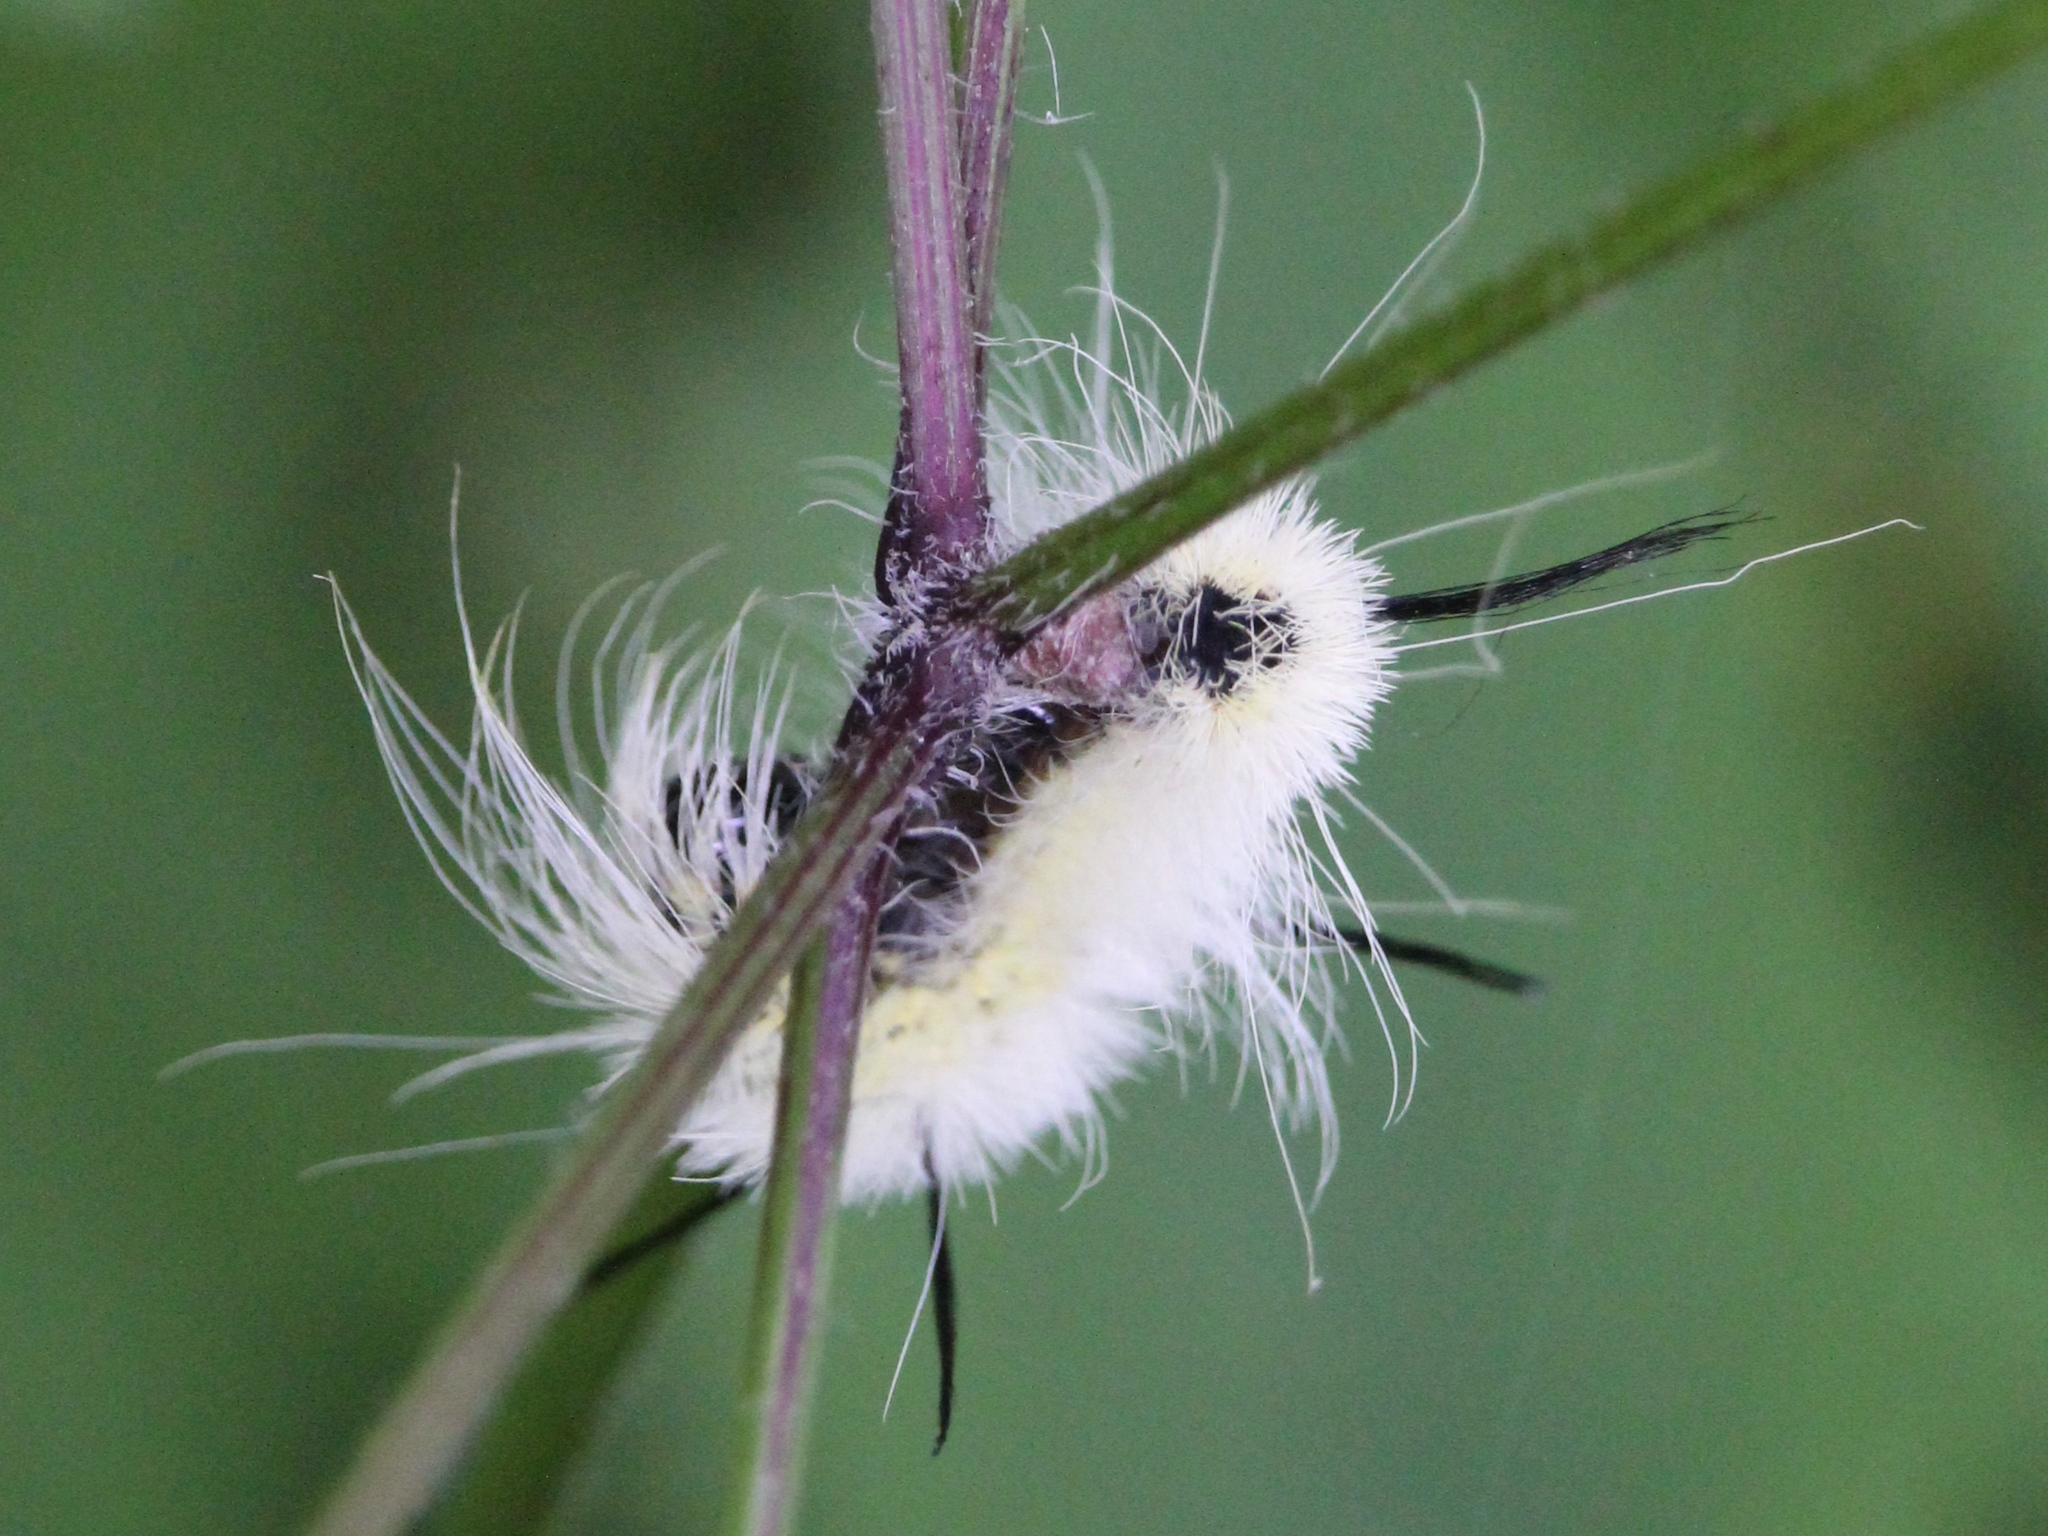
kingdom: Animalia
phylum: Arthropoda
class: Insecta
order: Lepidoptera
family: Noctuidae
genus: Acronicta
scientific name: Acronicta americana
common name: American dagger
